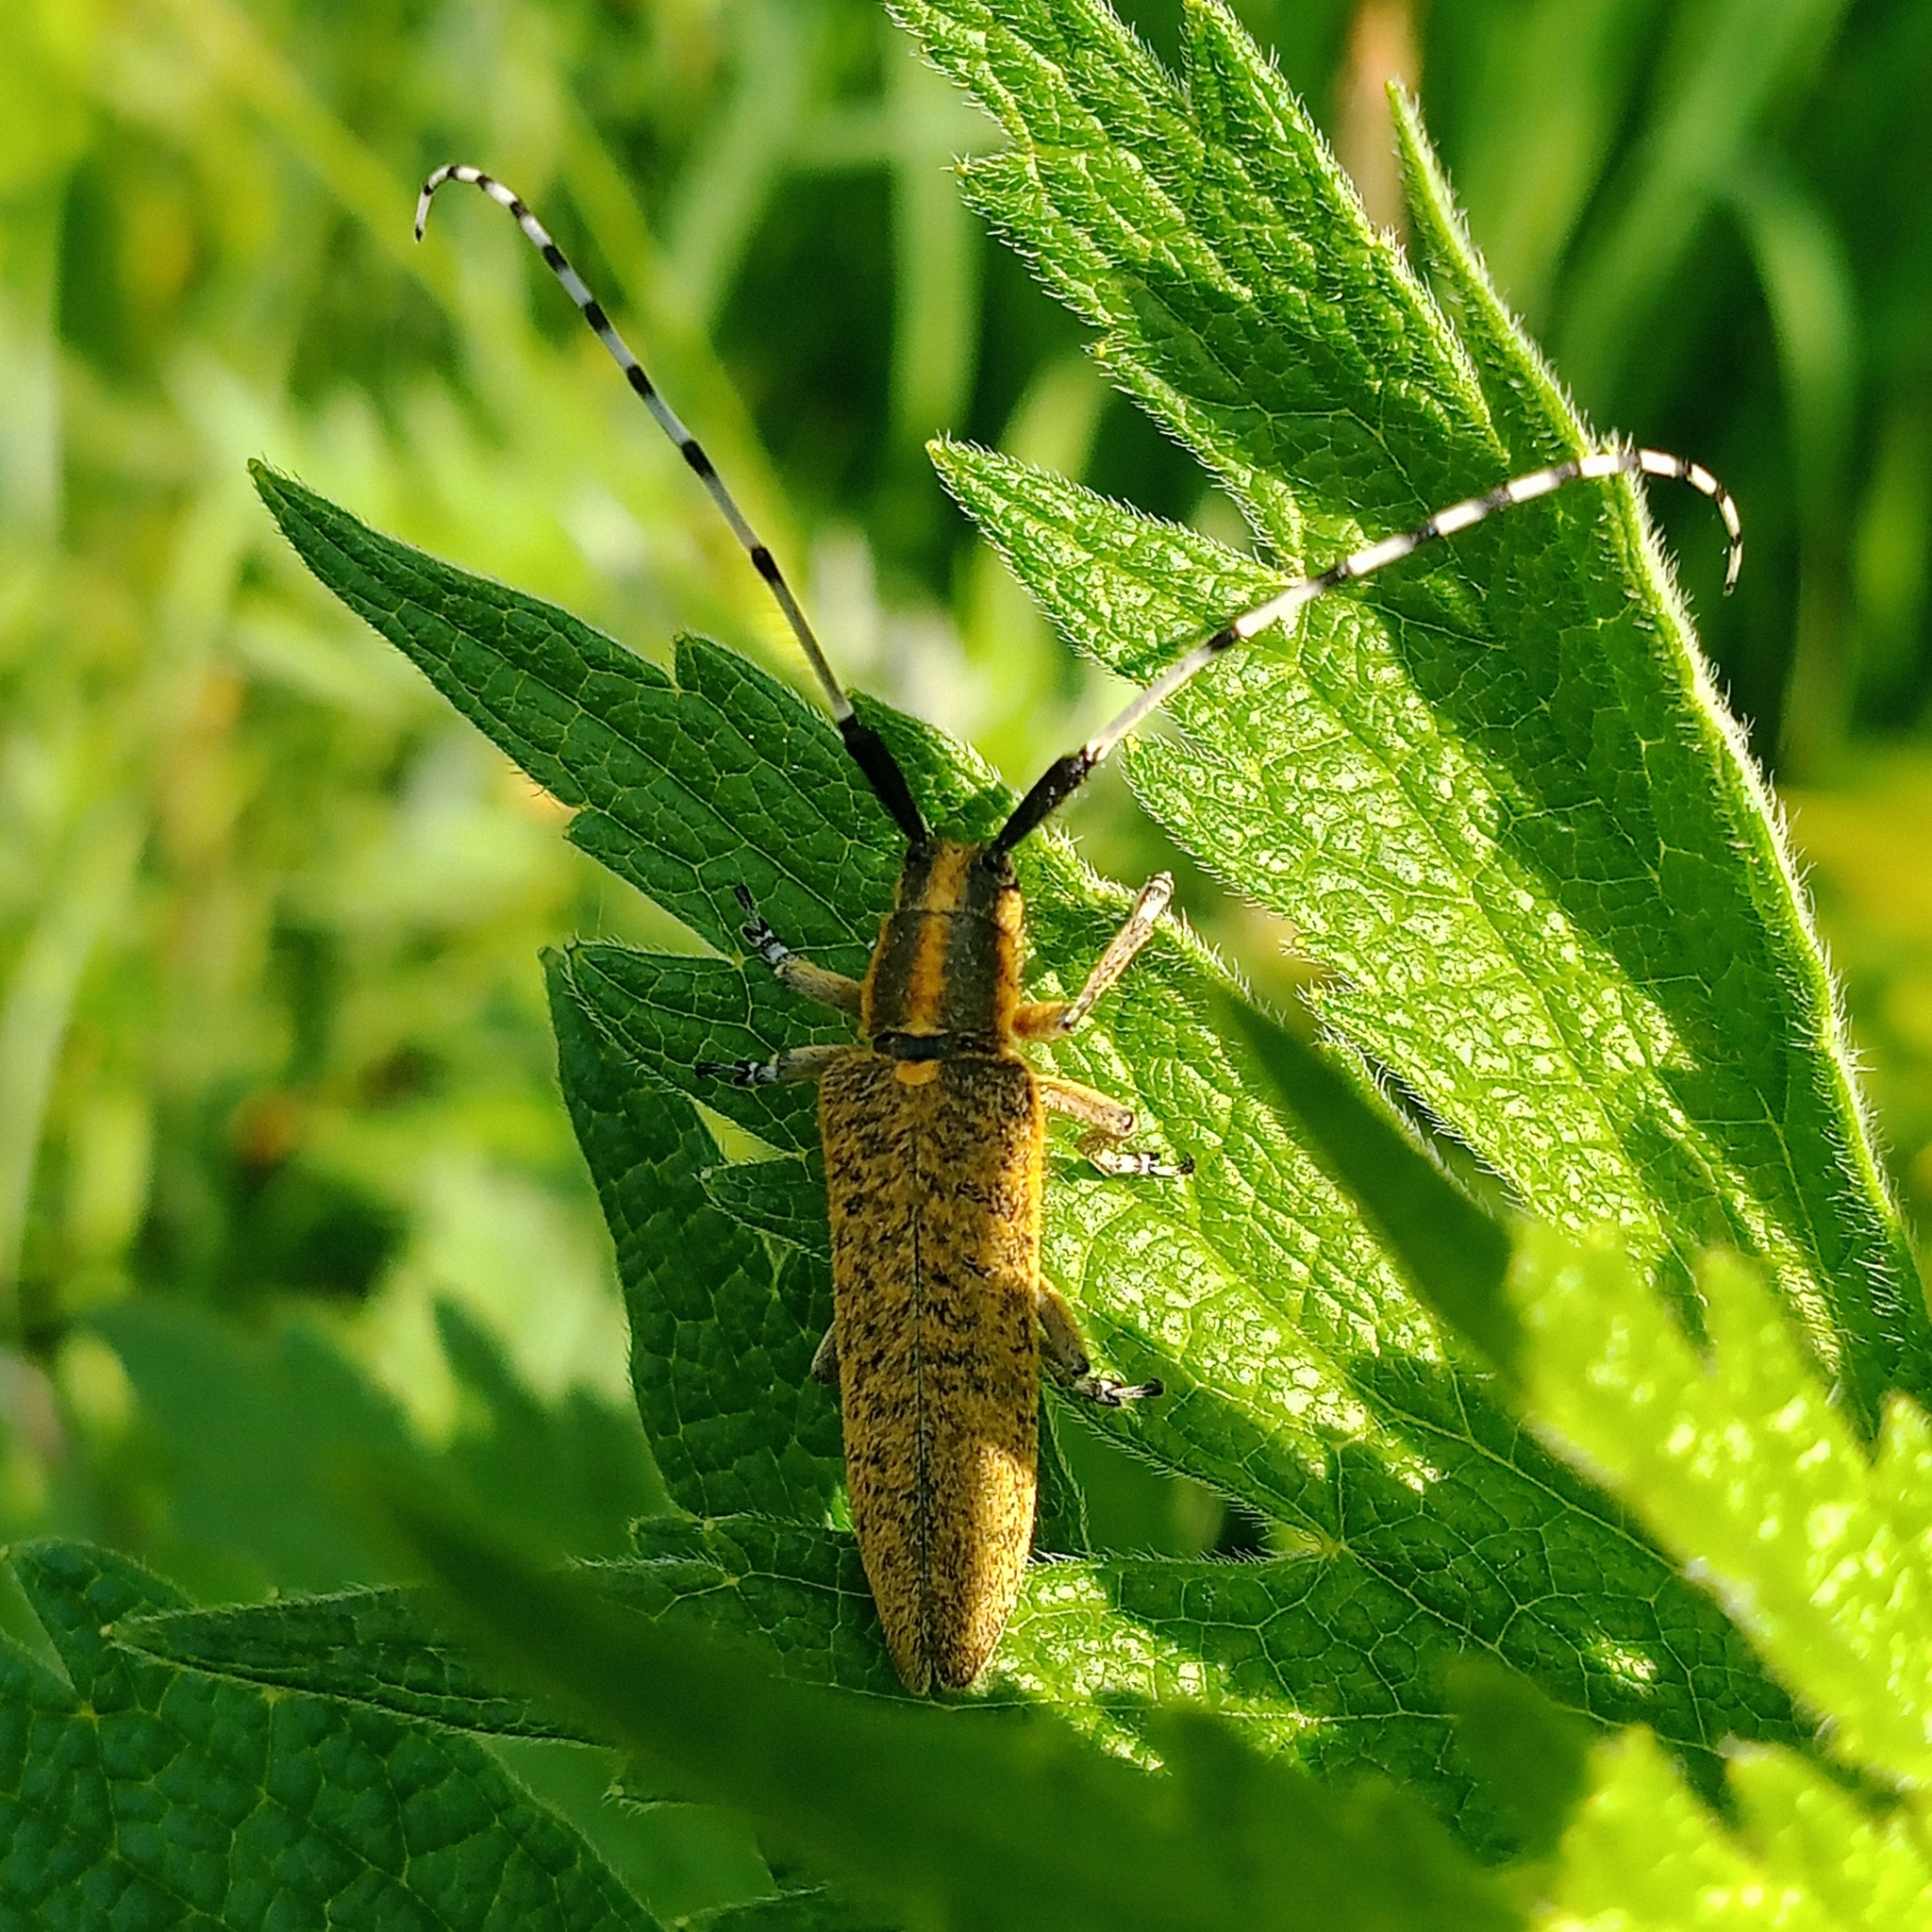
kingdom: Animalia
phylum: Arthropoda
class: Insecta
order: Coleoptera
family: Cerambycidae
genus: Agapanthia
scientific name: Agapanthia villosoviridescens
